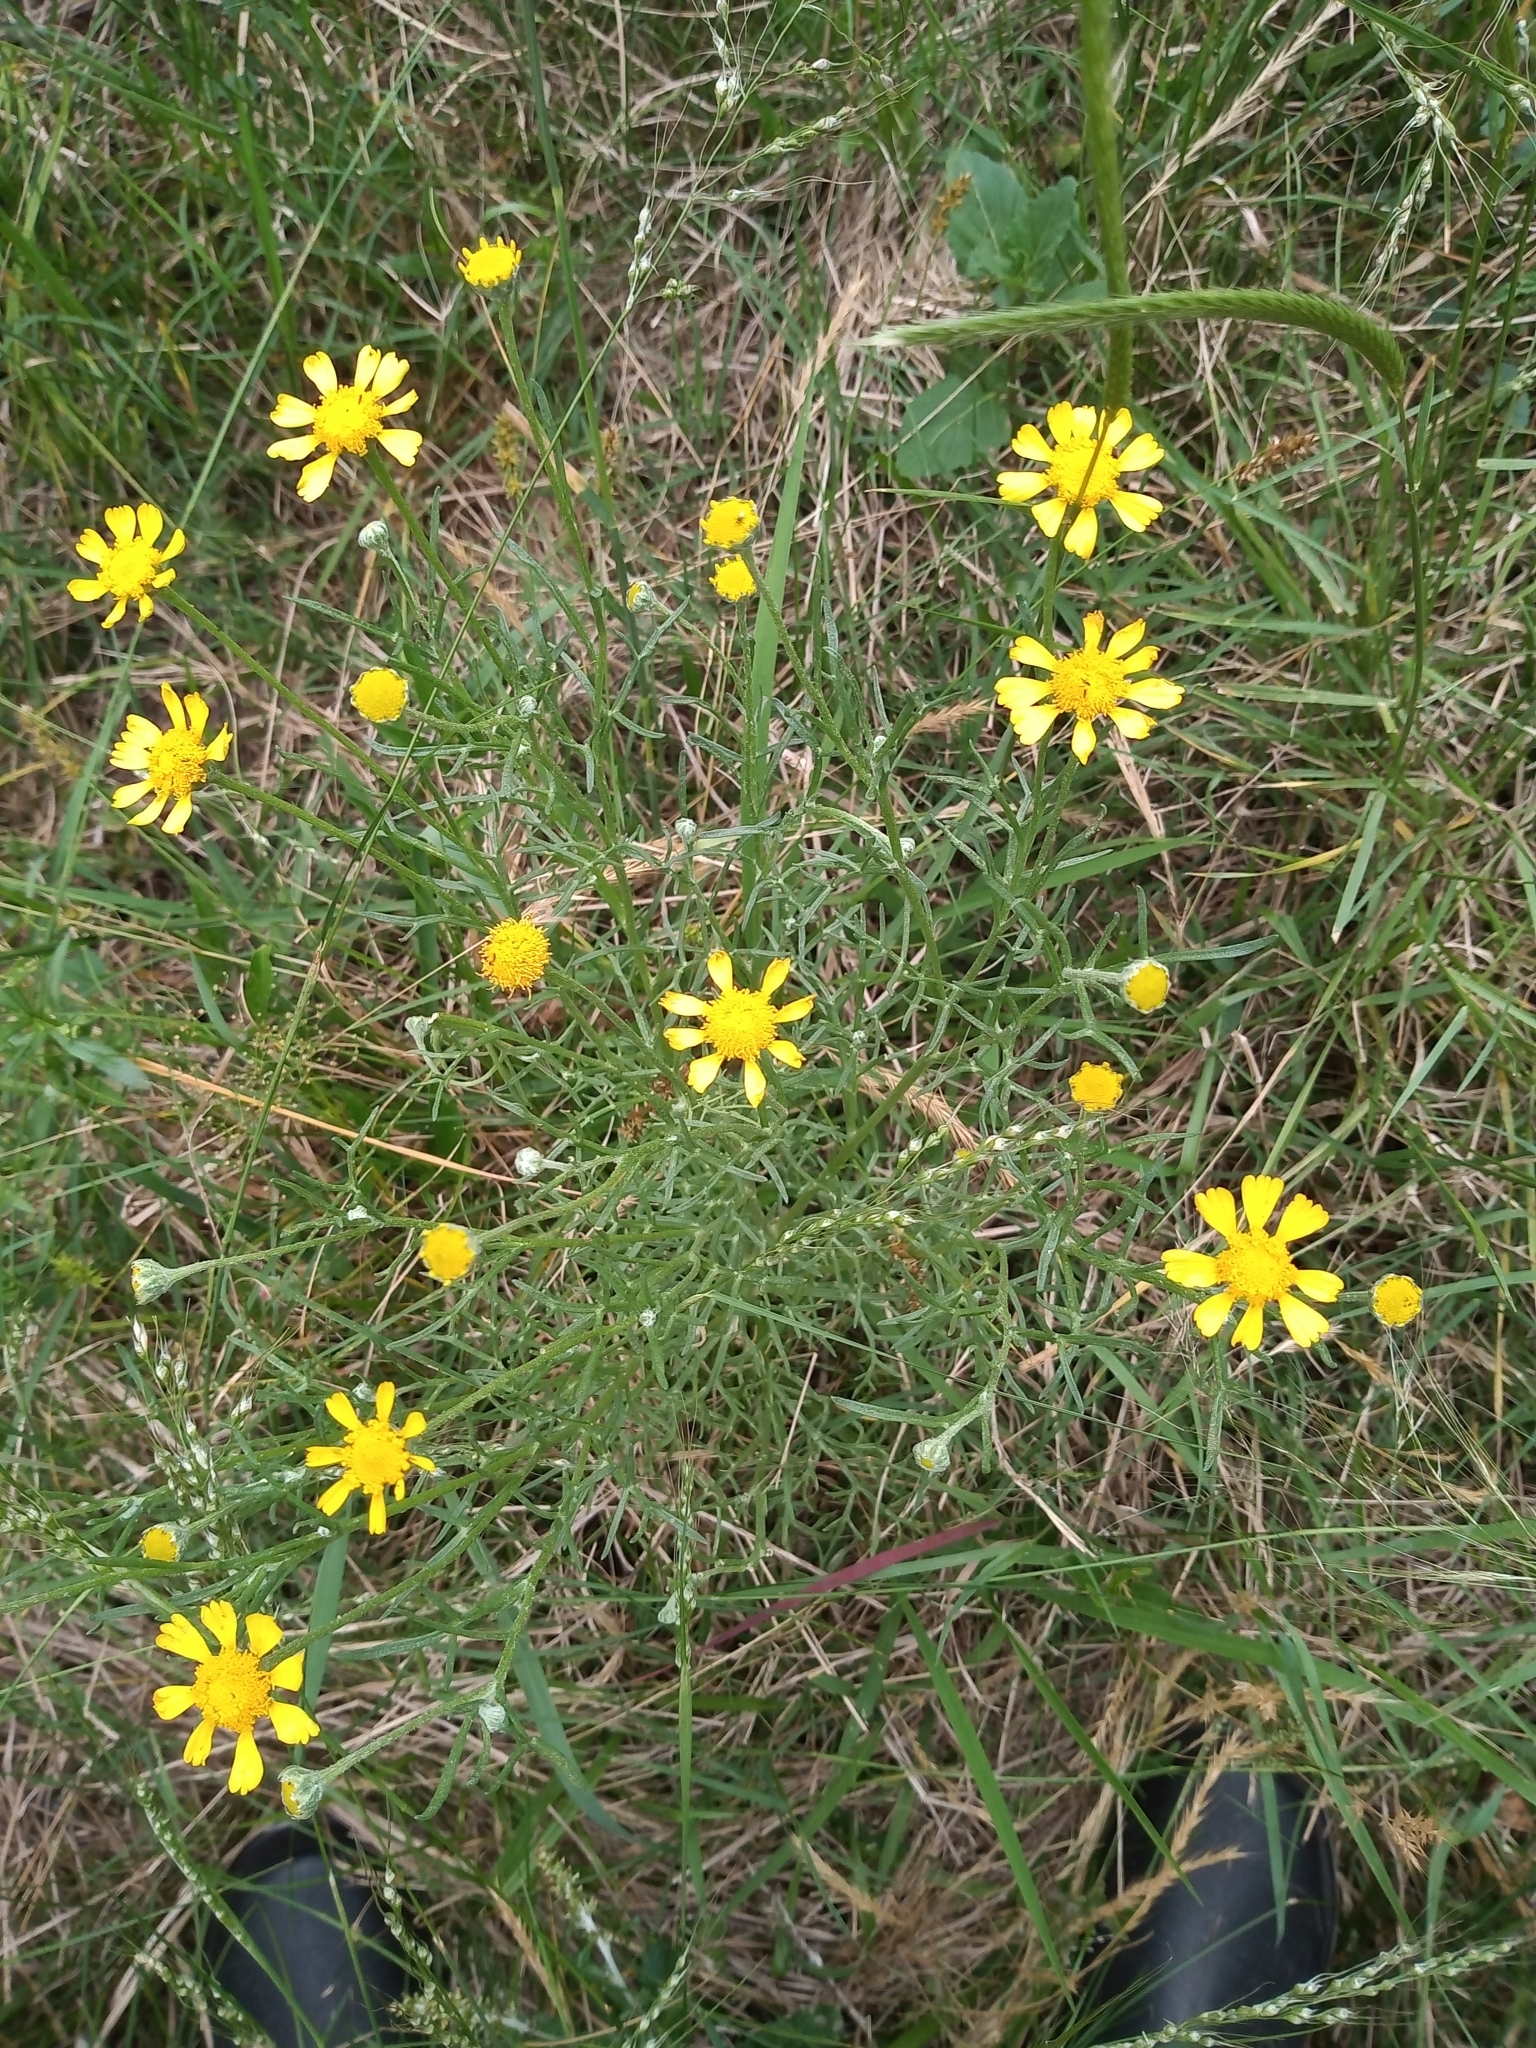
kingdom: Plantae
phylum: Tracheophyta
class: Magnoliopsida
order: Asterales
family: Asteraceae
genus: Hymenoxys
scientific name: Hymenoxys megapotamica
